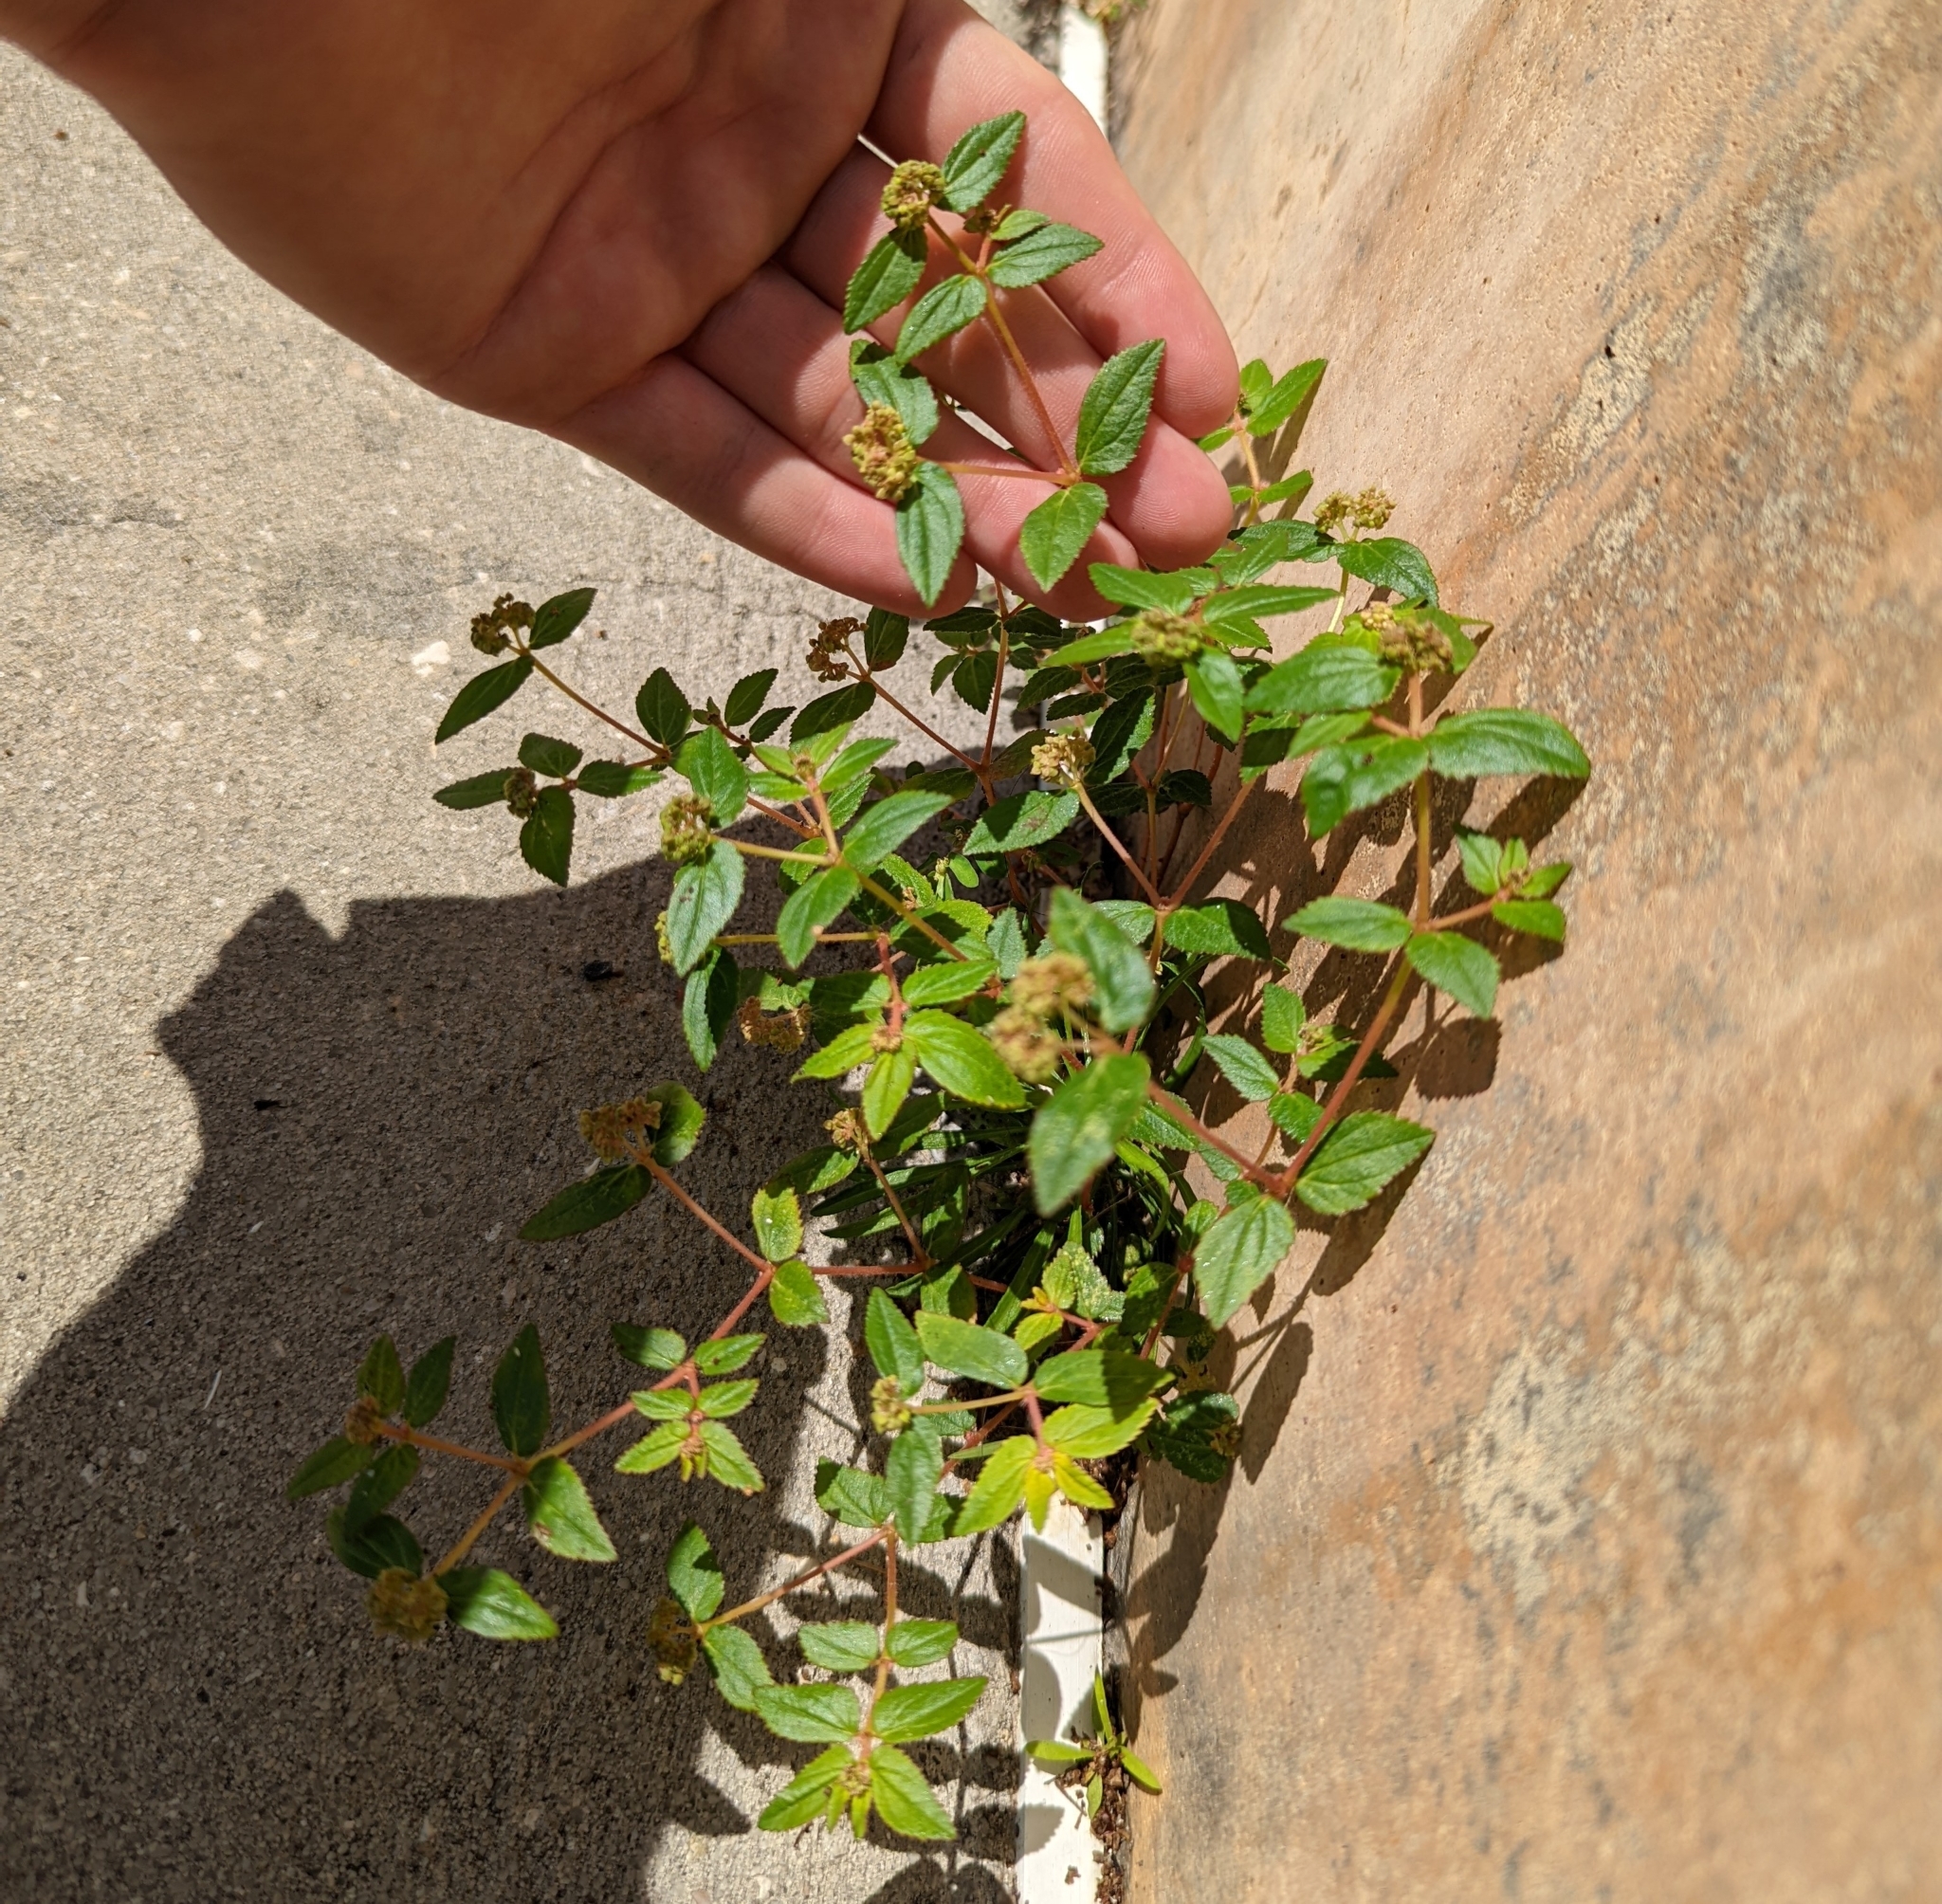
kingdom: Plantae
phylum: Tracheophyta
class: Magnoliopsida
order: Malpighiales
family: Euphorbiaceae
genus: Euphorbia
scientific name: Euphorbia ophthalmica
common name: Florida hammock sandmat
